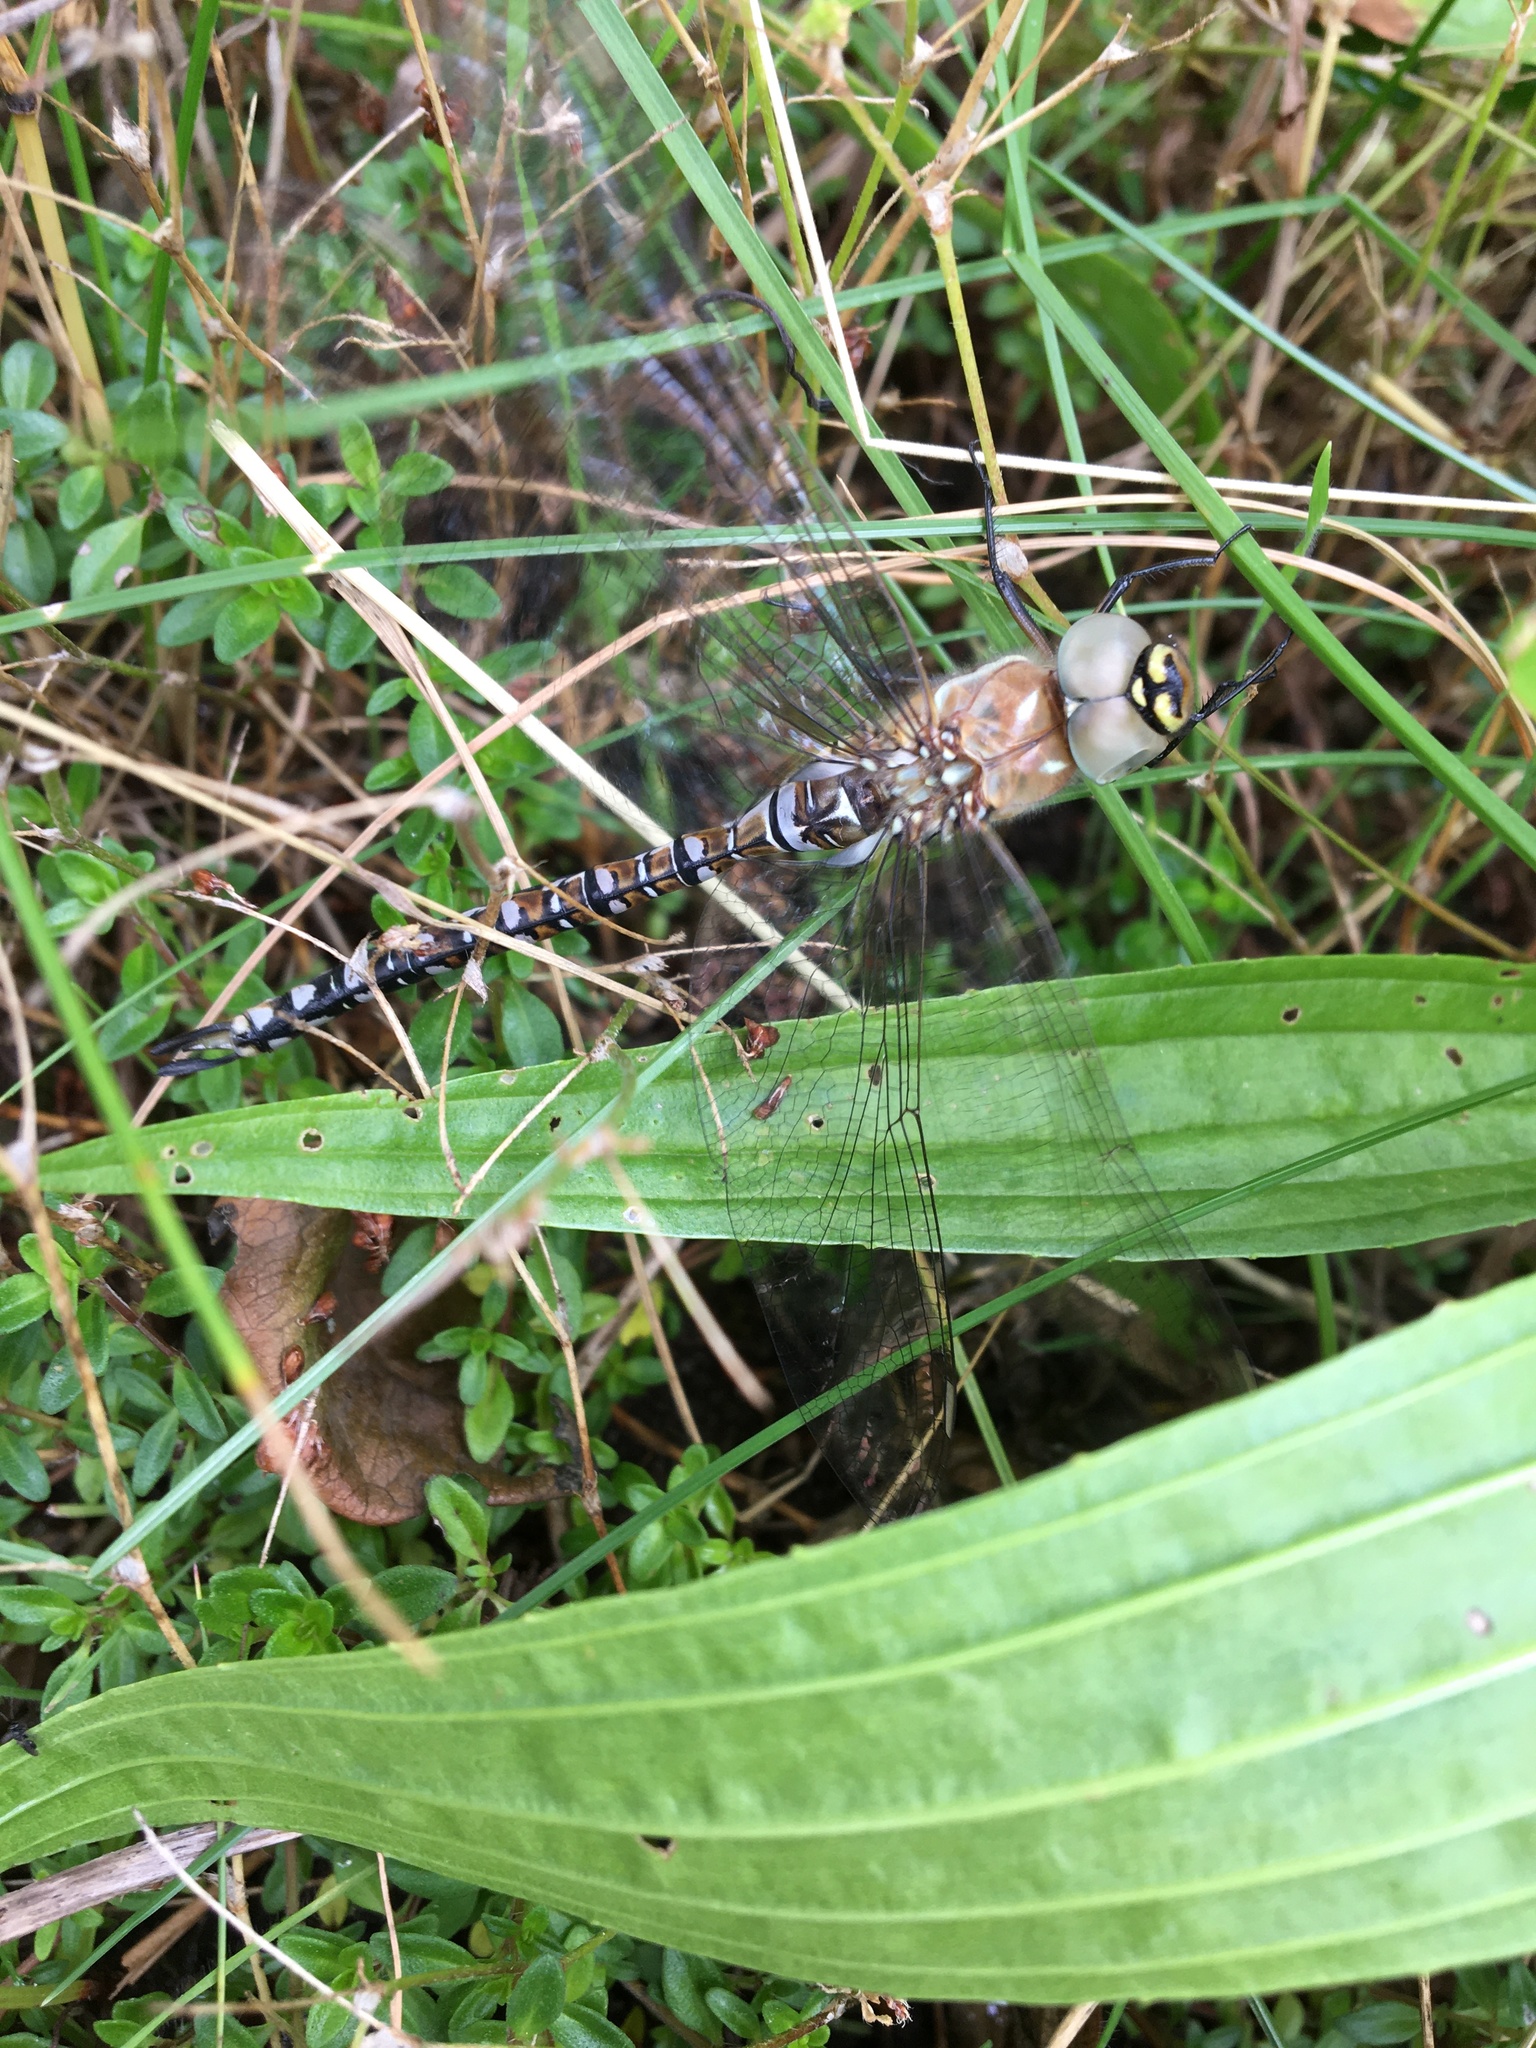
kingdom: Animalia
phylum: Arthropoda
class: Insecta
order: Odonata
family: Aeshnidae
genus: Aeshna
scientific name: Aeshna mixta
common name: Migrant hawker
